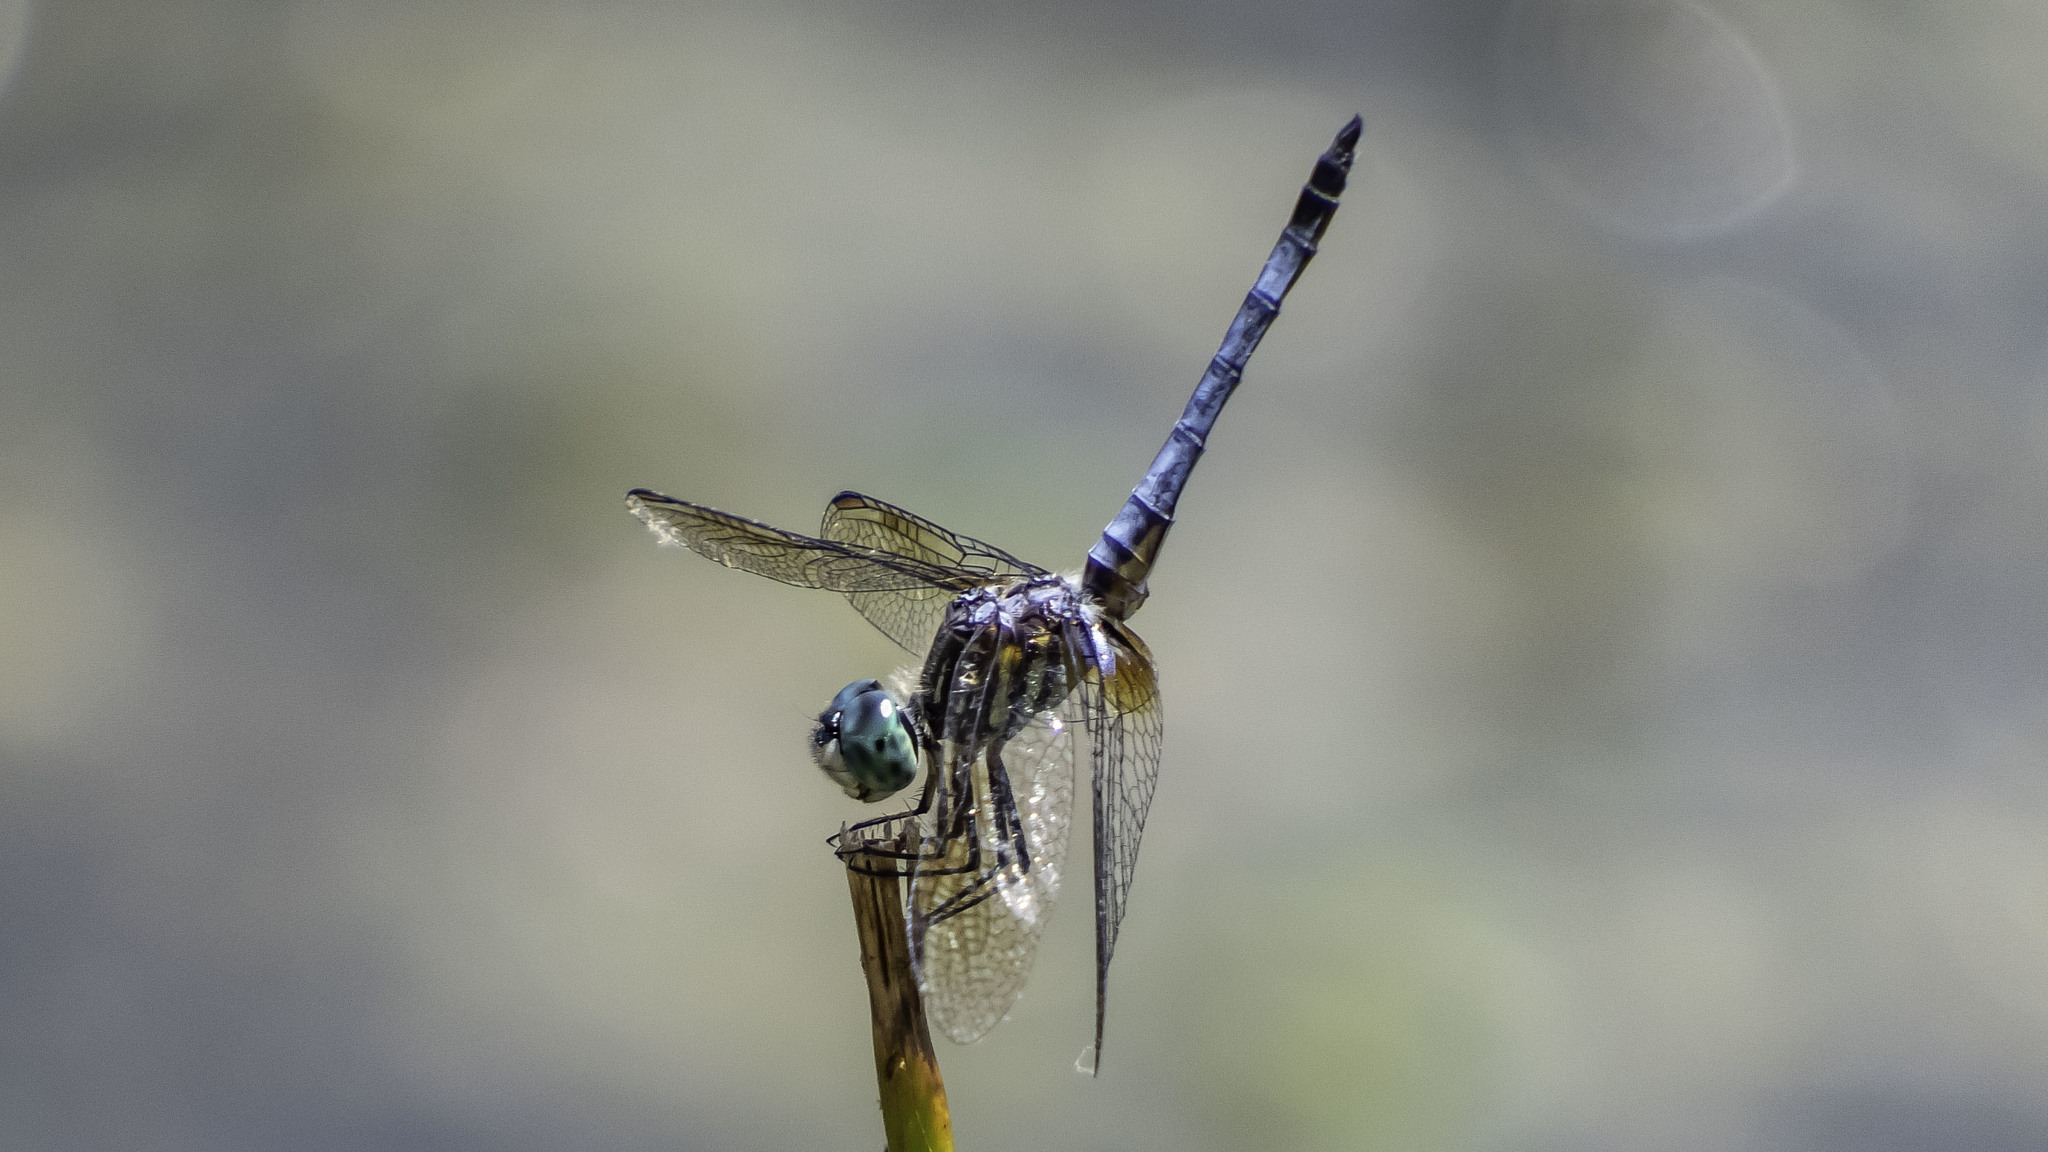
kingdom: Animalia
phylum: Arthropoda
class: Insecta
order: Odonata
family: Libellulidae
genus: Pachydiplax
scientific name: Pachydiplax longipennis
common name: Blue dasher
